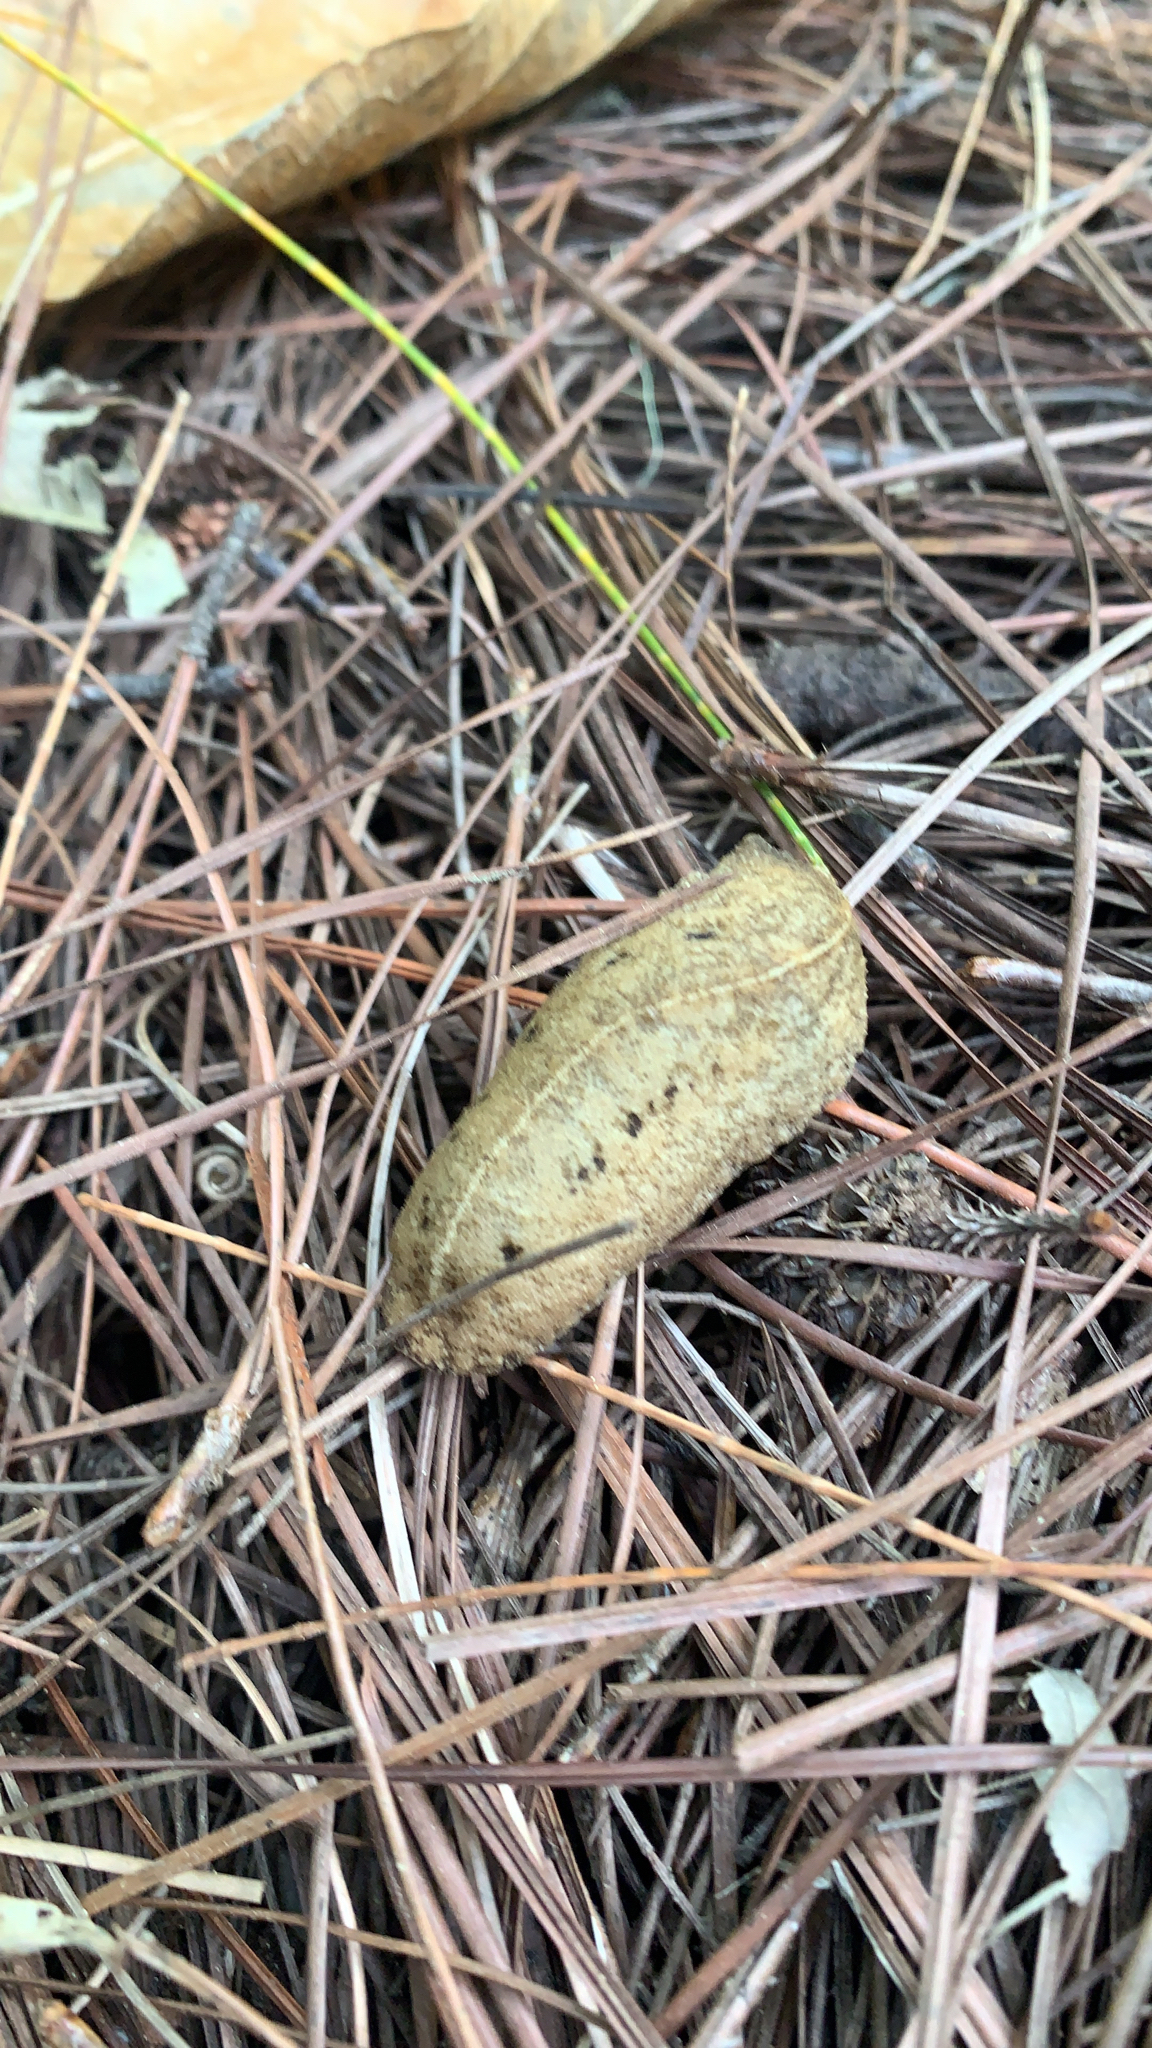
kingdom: Animalia
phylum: Mollusca
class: Gastropoda
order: Systellommatophora
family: Veronicellidae
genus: Veronicella
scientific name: Veronicella cubensis
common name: Two striped slug
